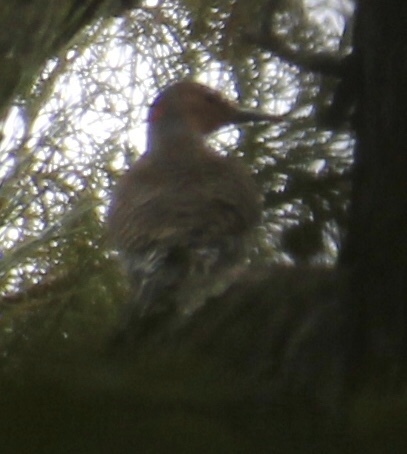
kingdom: Animalia
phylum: Chordata
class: Aves
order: Piciformes
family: Picidae
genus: Colaptes
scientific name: Colaptes auratus
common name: Northern flicker
